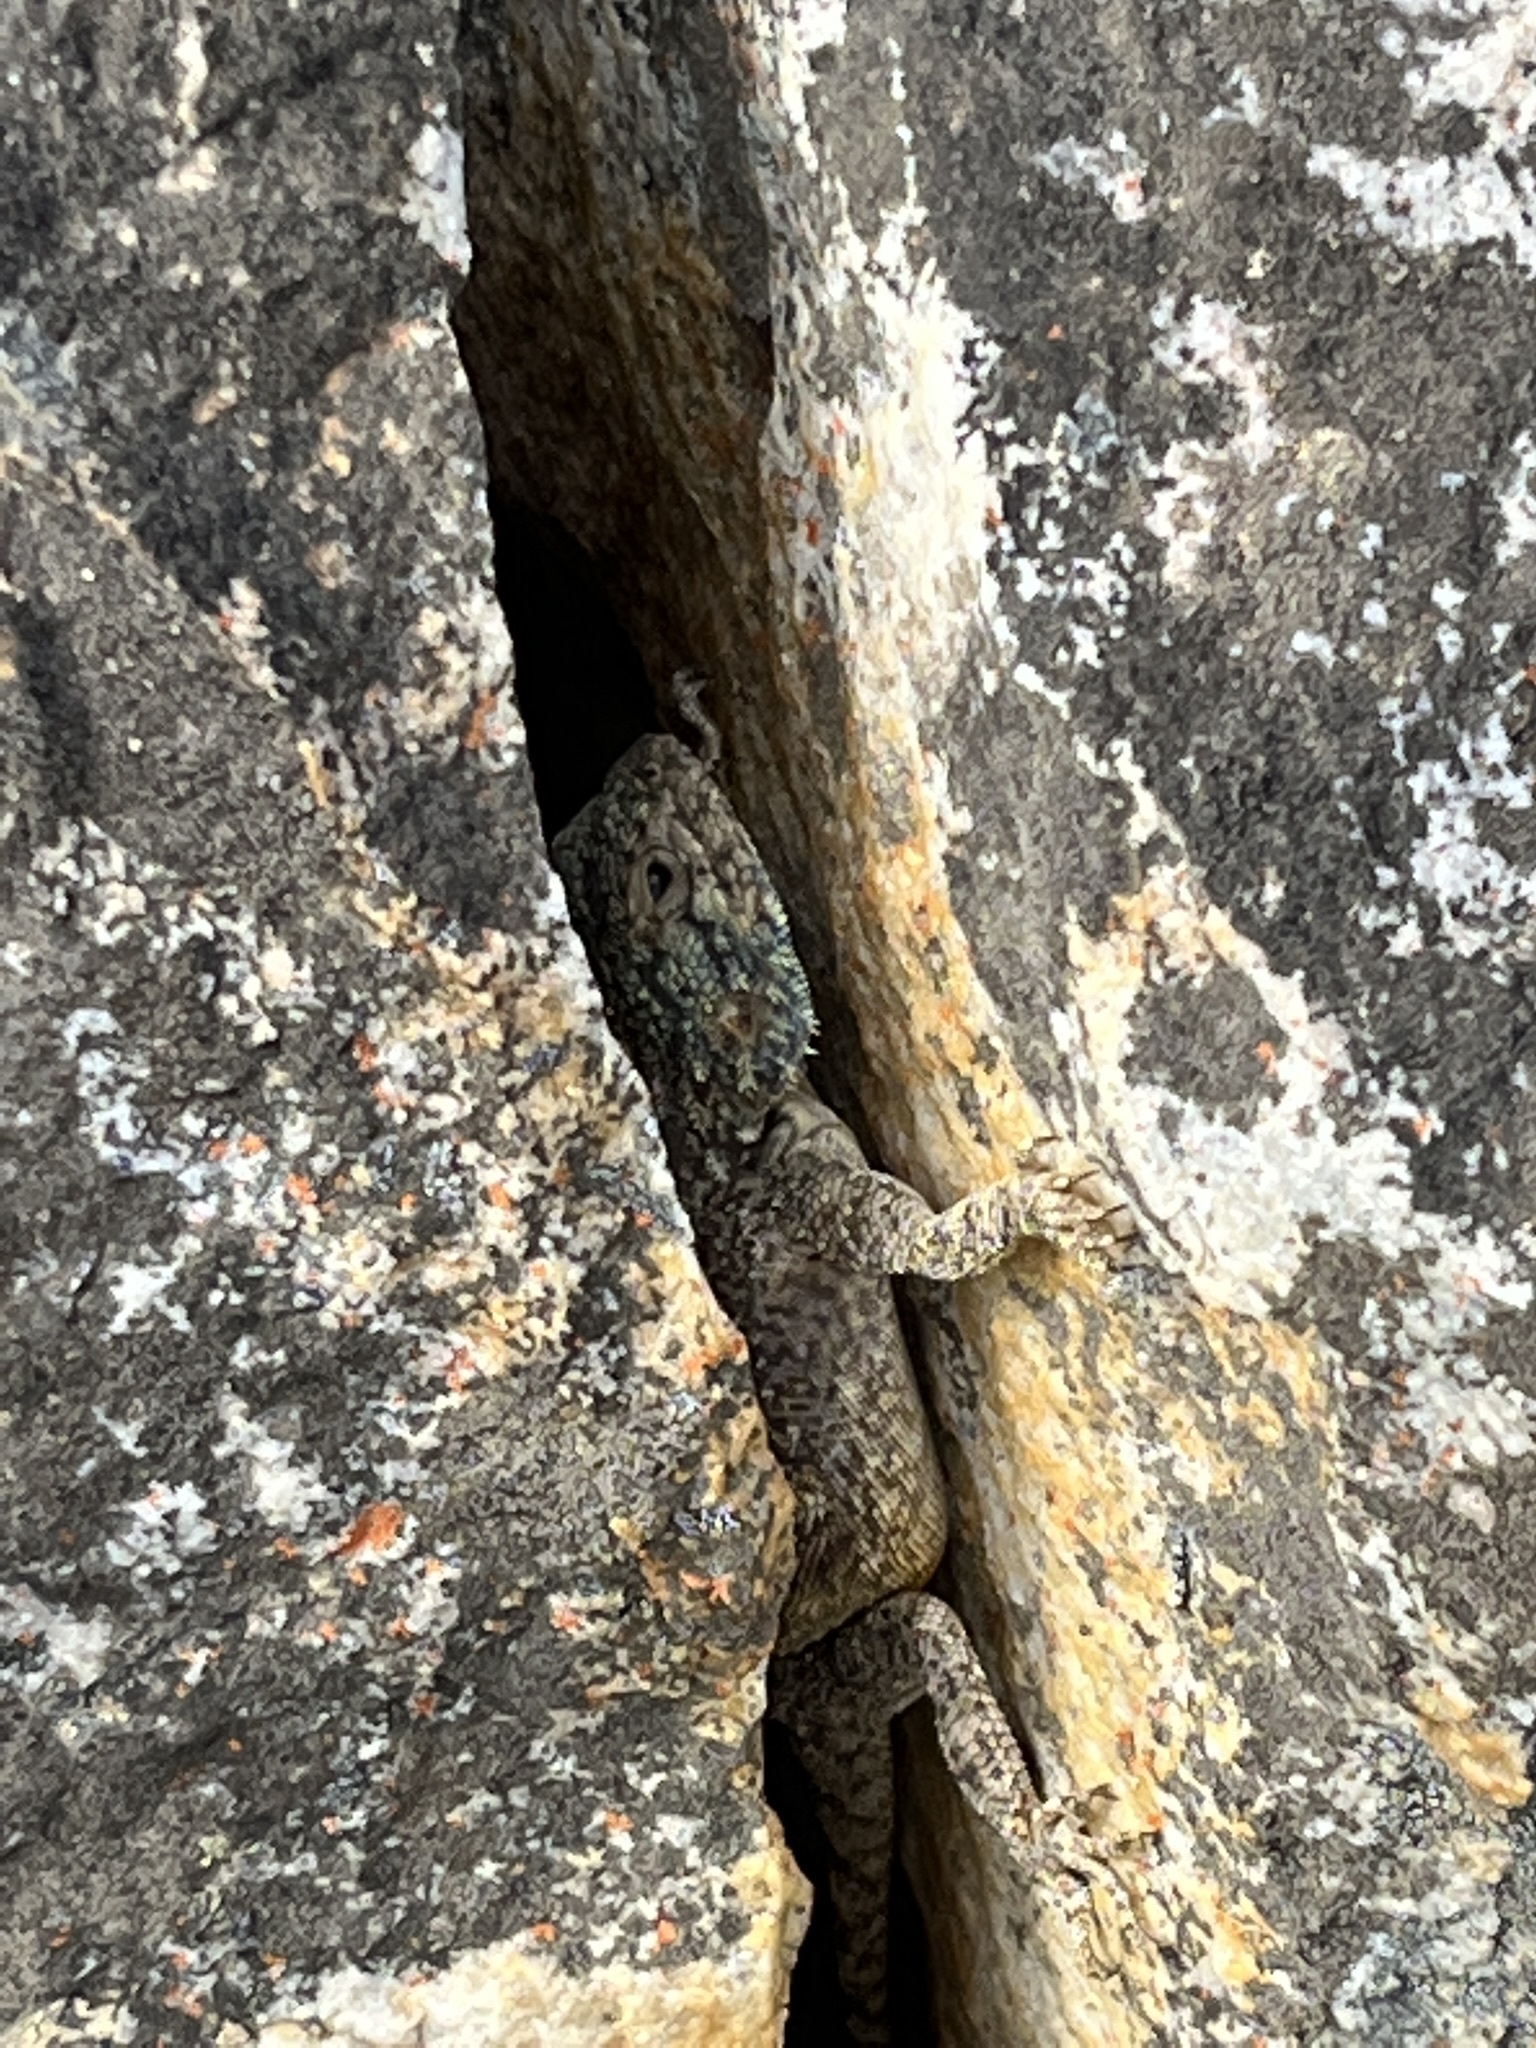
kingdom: Animalia
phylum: Chordata
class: Squamata
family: Agamidae
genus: Agama
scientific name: Agama atra
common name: Southern african rock agama
